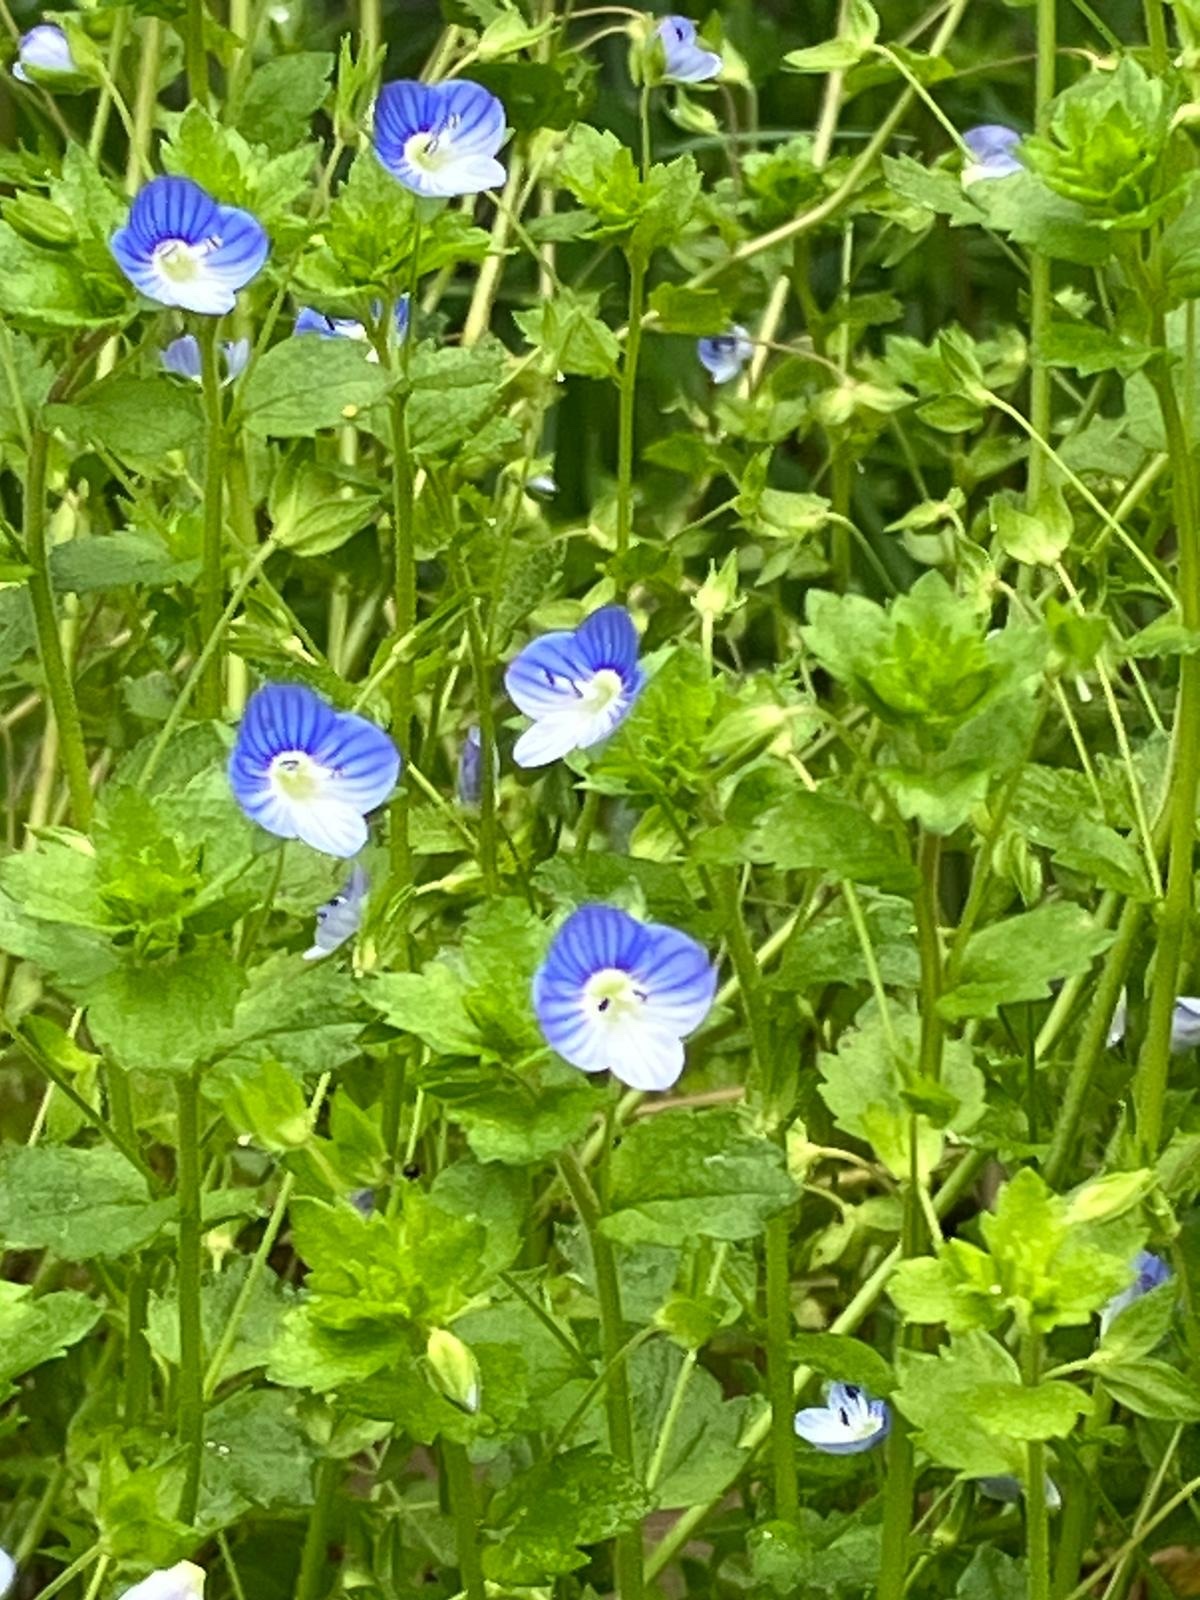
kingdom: Plantae
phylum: Tracheophyta
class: Magnoliopsida
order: Lamiales
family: Plantaginaceae
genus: Veronica
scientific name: Veronica persica
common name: Common field-speedwell
